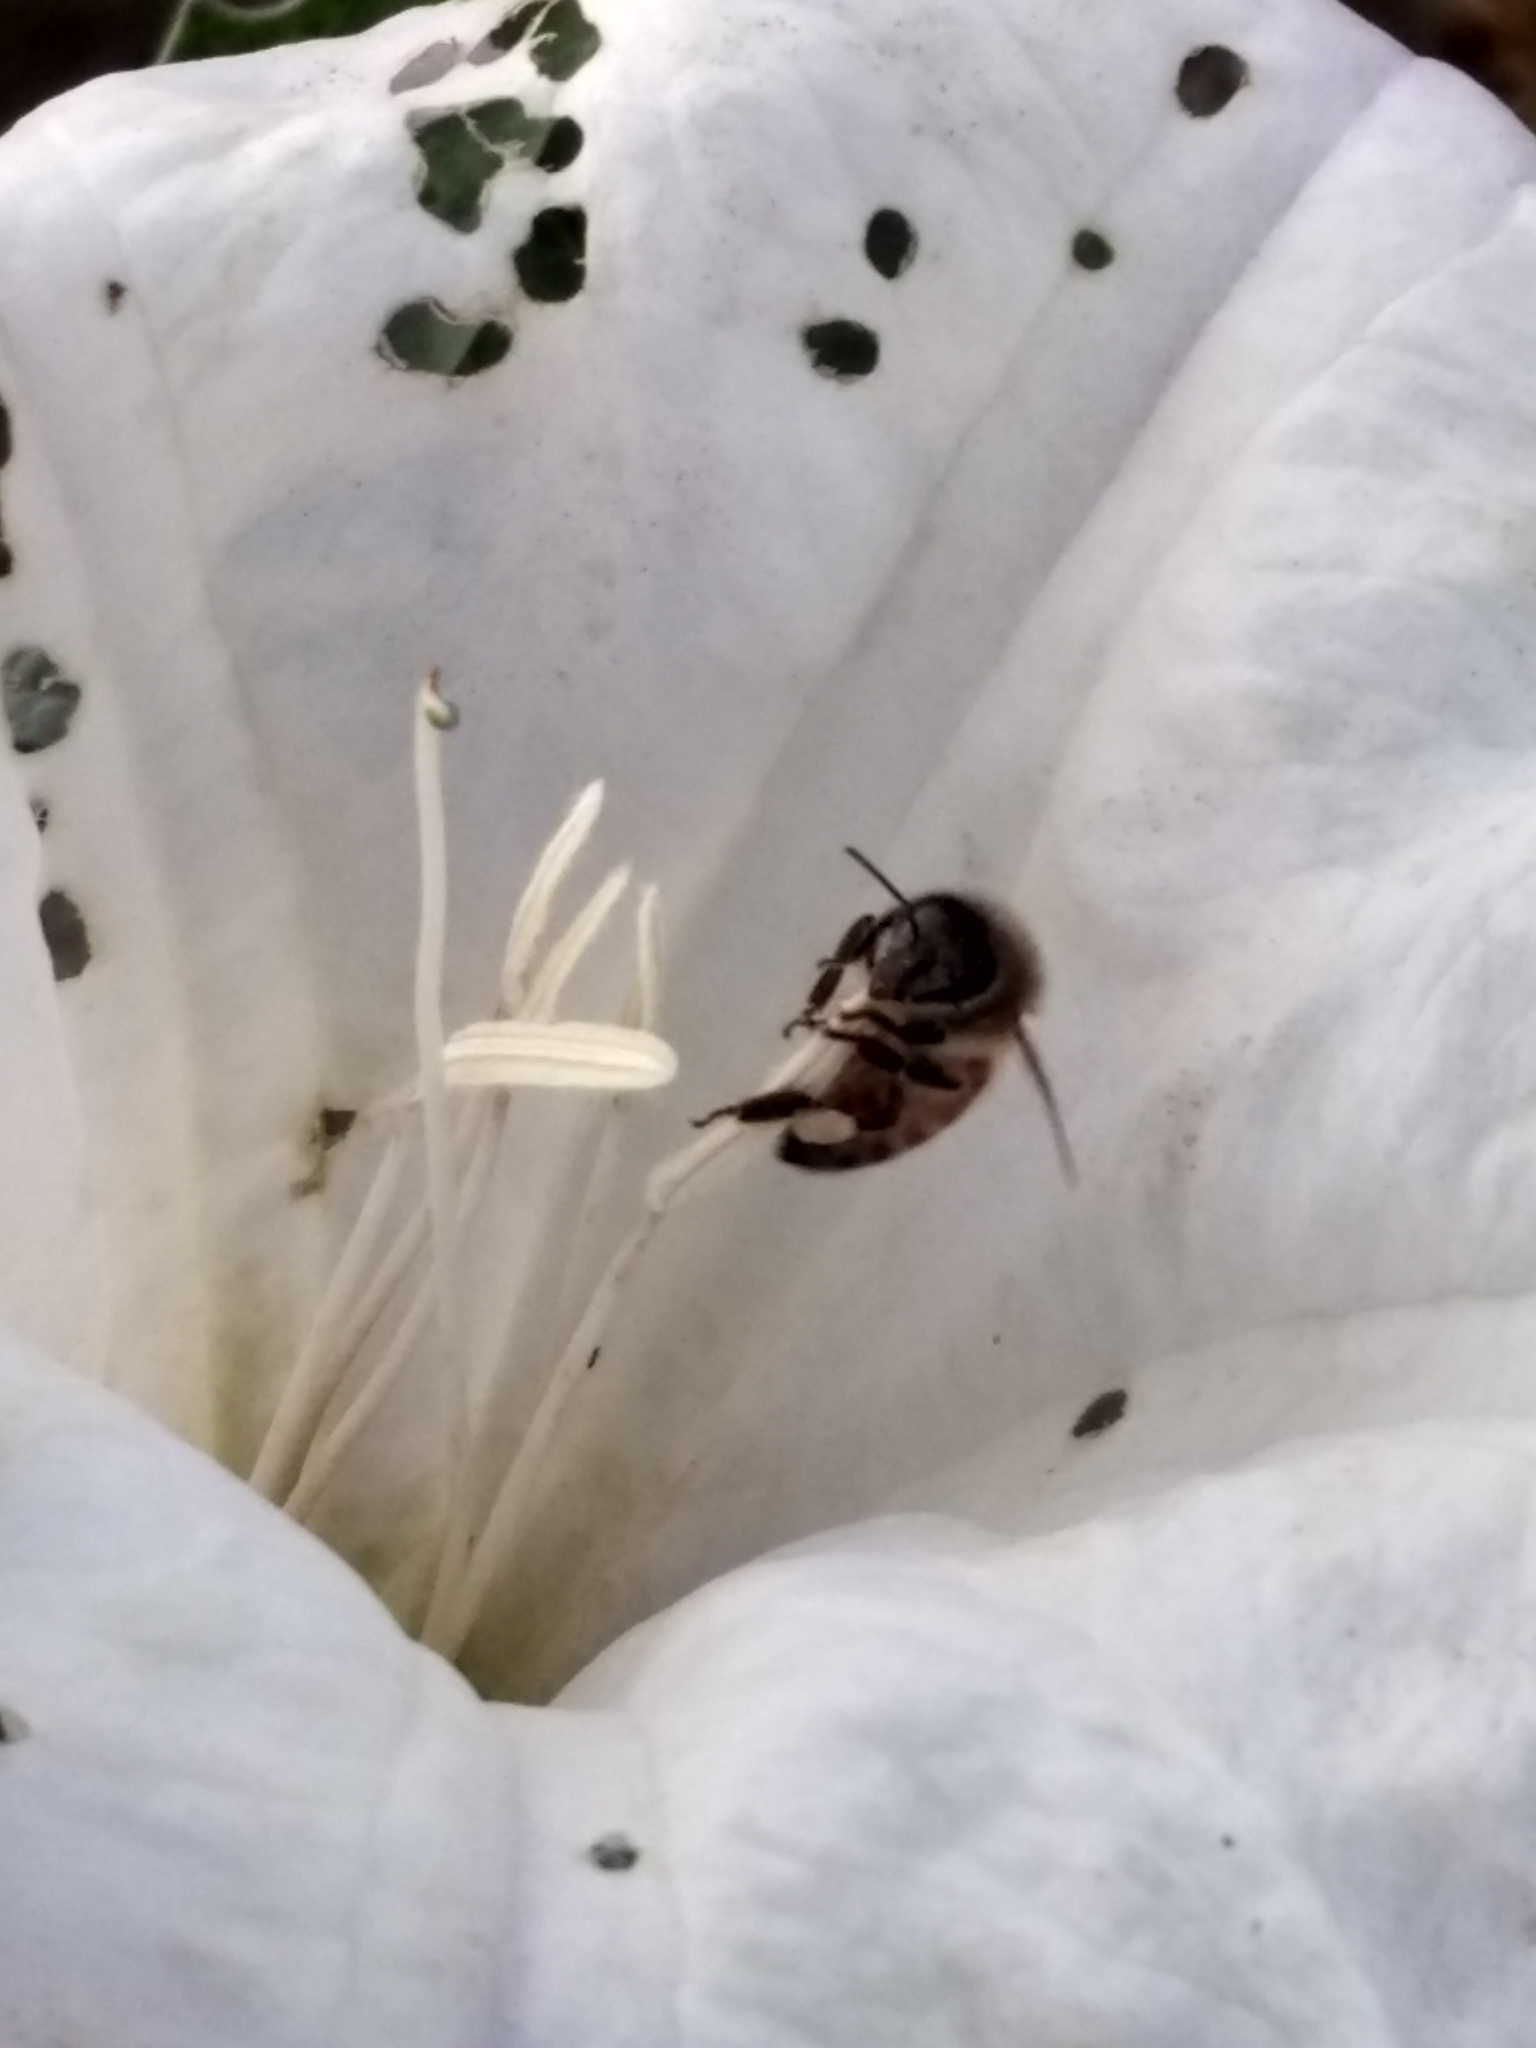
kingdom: Animalia
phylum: Arthropoda
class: Insecta
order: Hymenoptera
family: Apidae
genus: Apis
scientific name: Apis mellifera
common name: Honey bee
